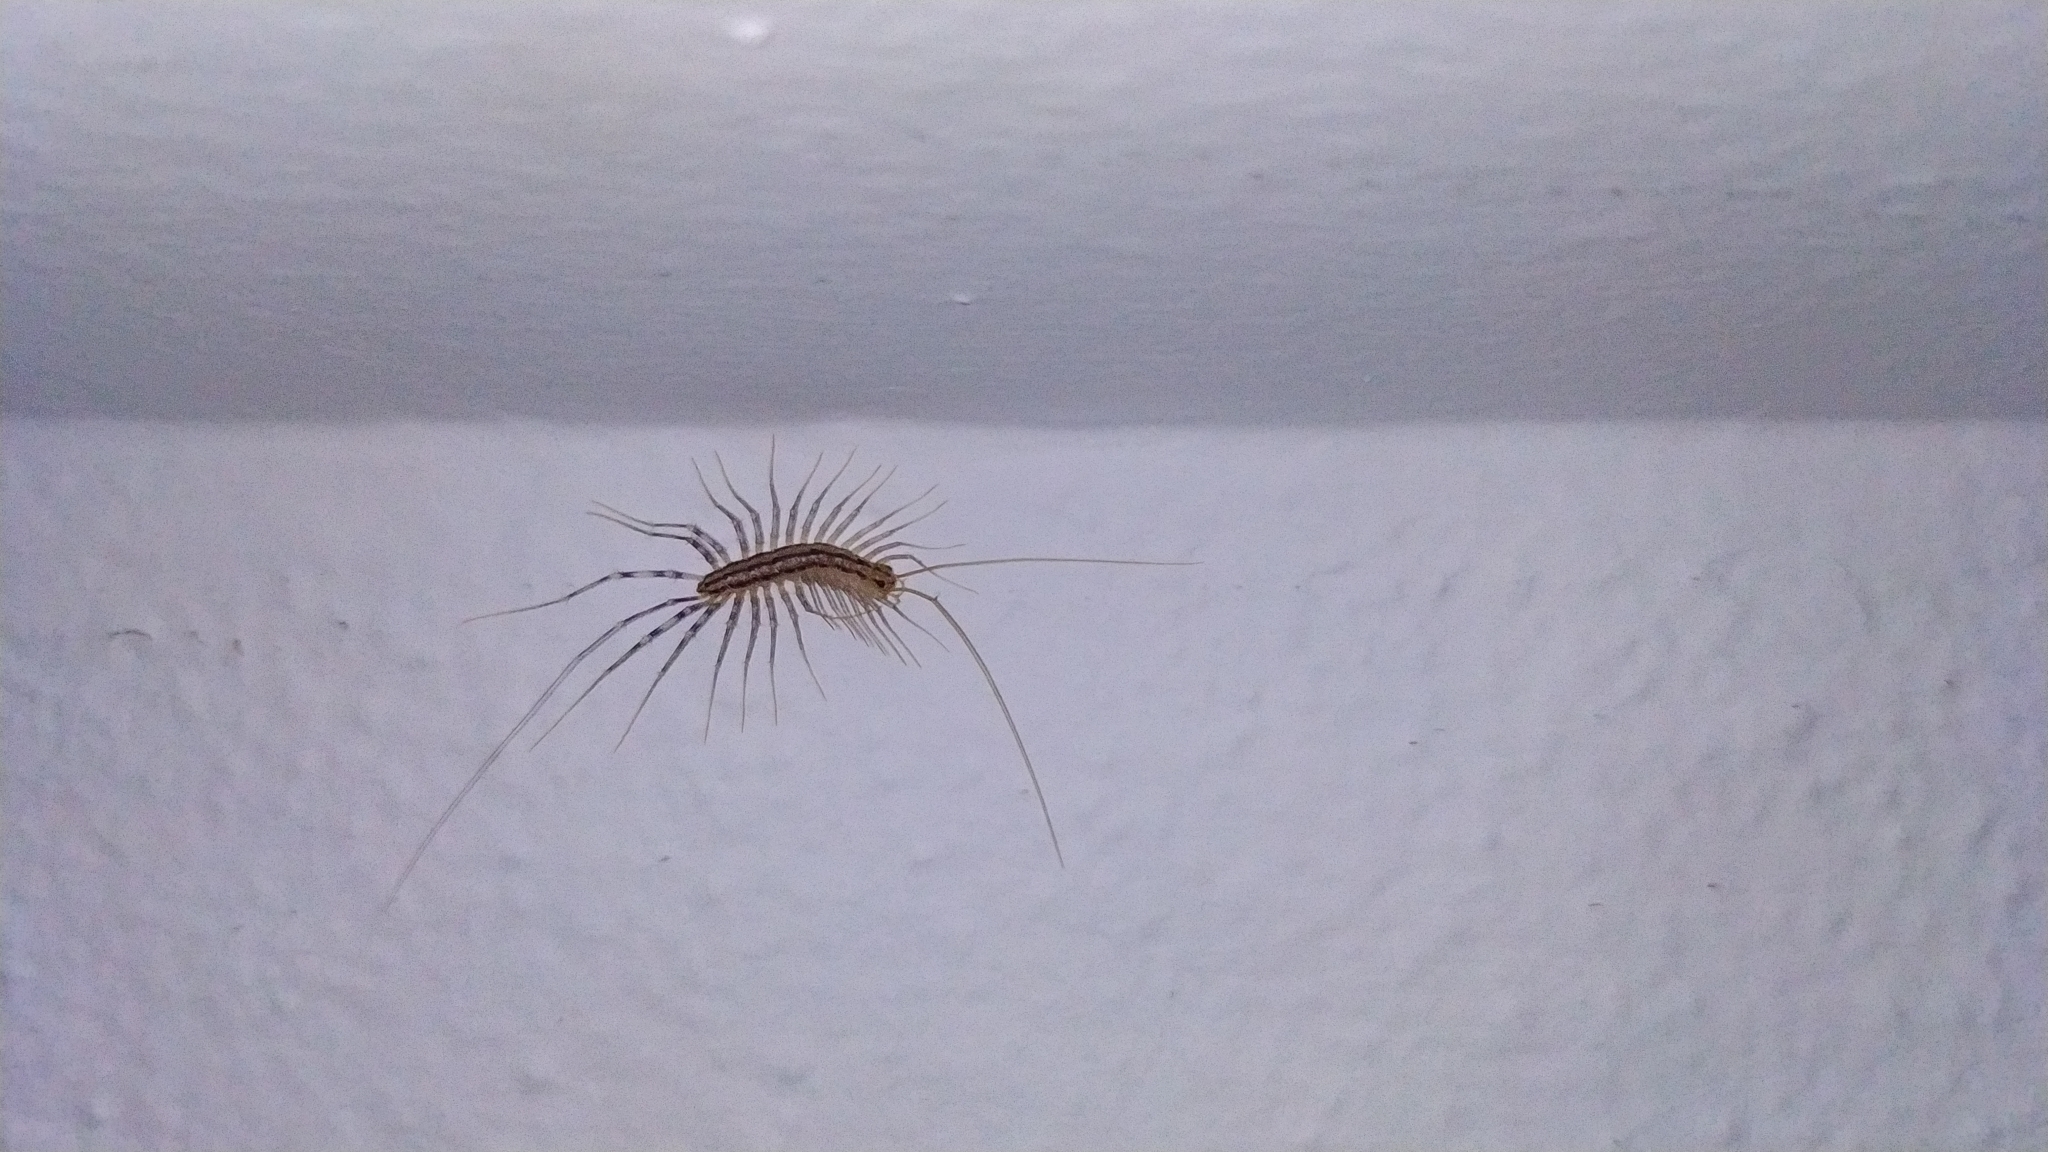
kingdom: Animalia
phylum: Arthropoda
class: Chilopoda
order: Scutigeromorpha
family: Scutigeridae
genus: Scutigera
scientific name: Scutigera coleoptrata
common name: House centipede
